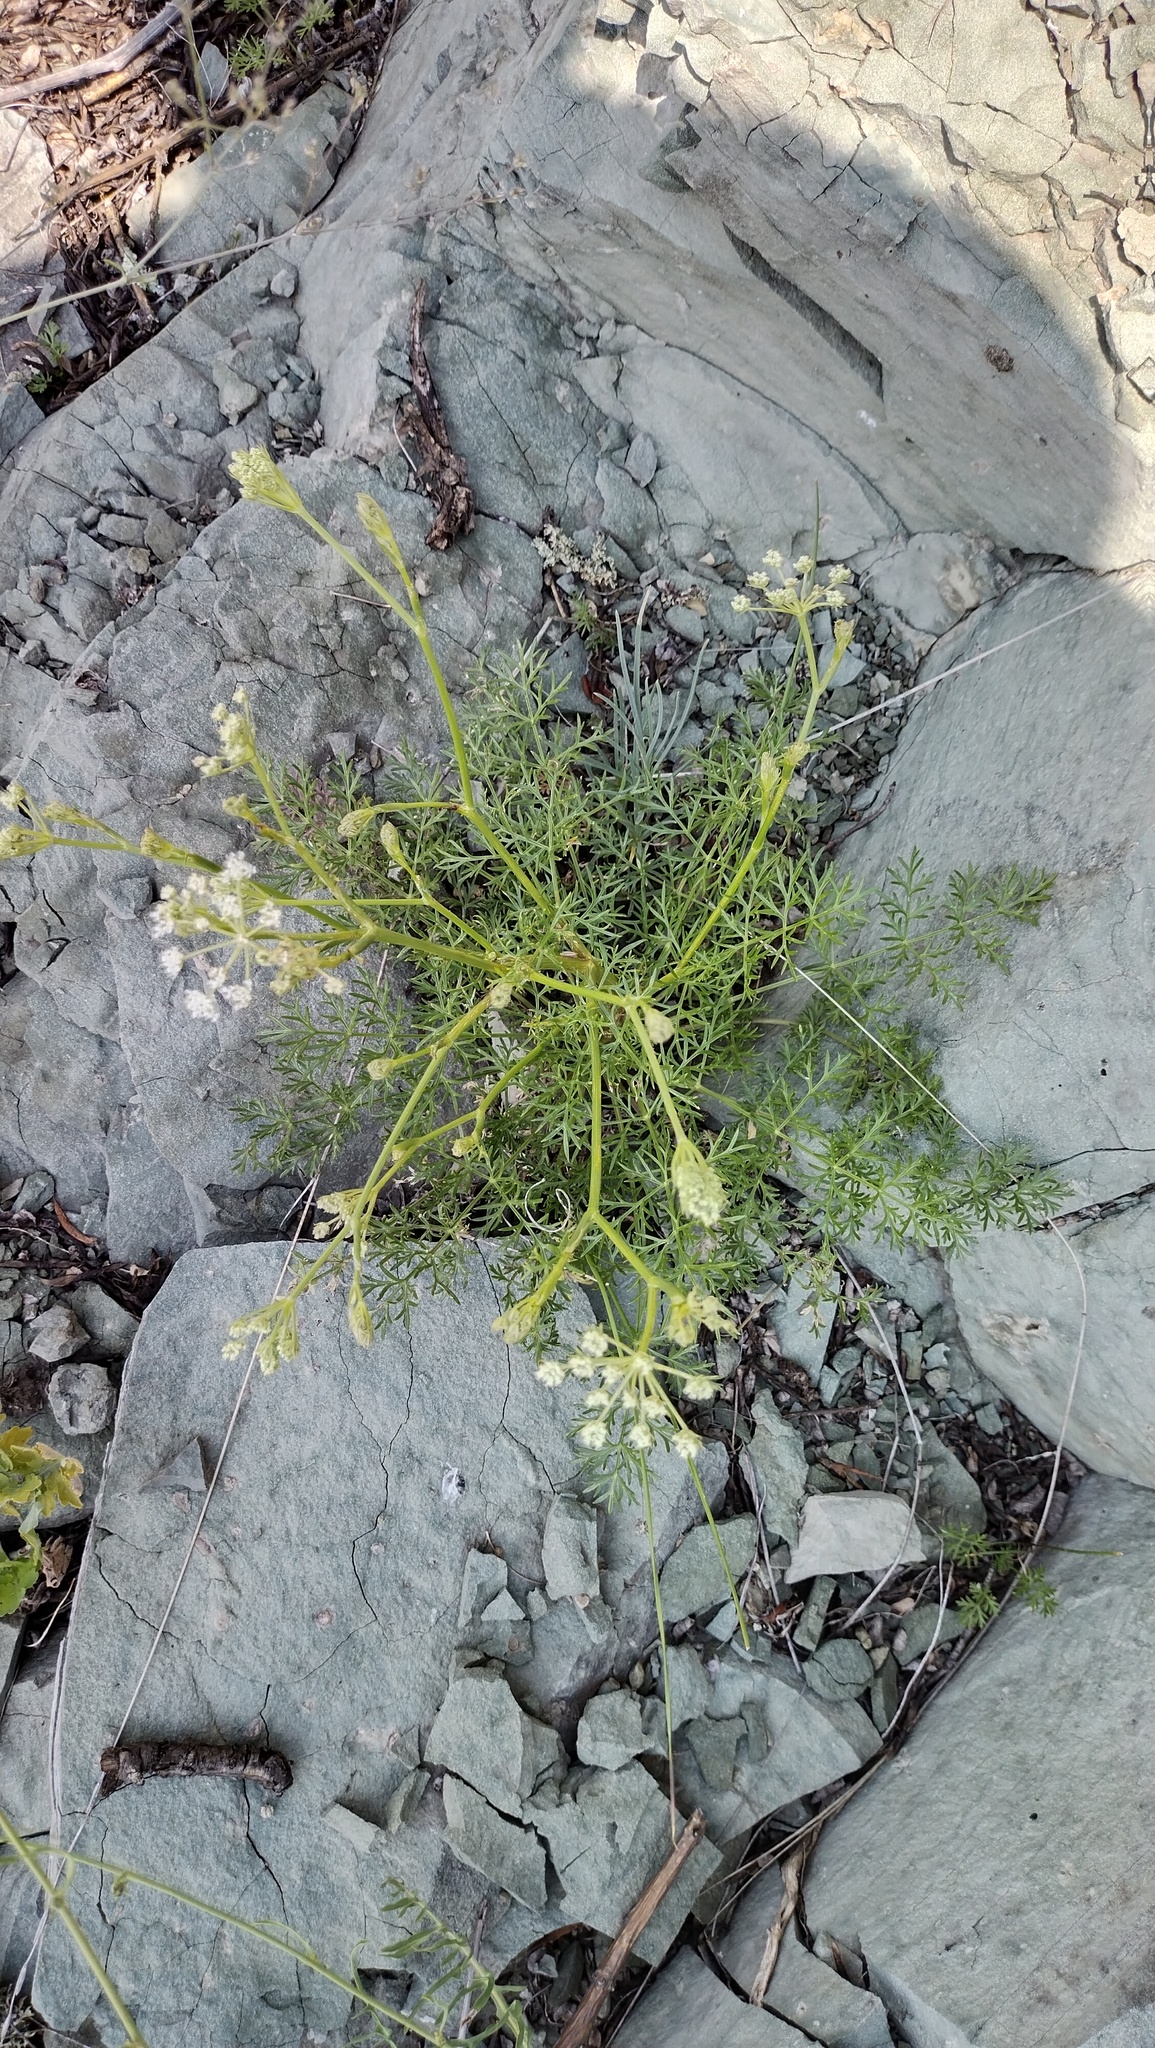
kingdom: Plantae
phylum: Tracheophyta
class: Magnoliopsida
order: Apiales
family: Apiaceae
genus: Kitagawia
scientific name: Kitagawia baicalensis
